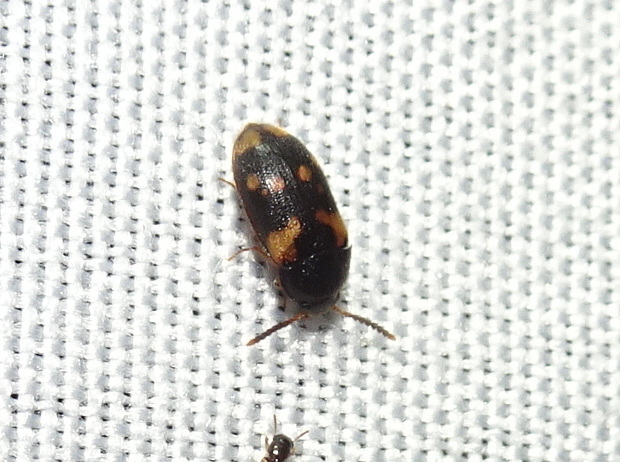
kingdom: Animalia
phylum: Arthropoda
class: Insecta
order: Coleoptera
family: Mycetophagidae
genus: Mycetophagus
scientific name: Mycetophagus serrulatus
